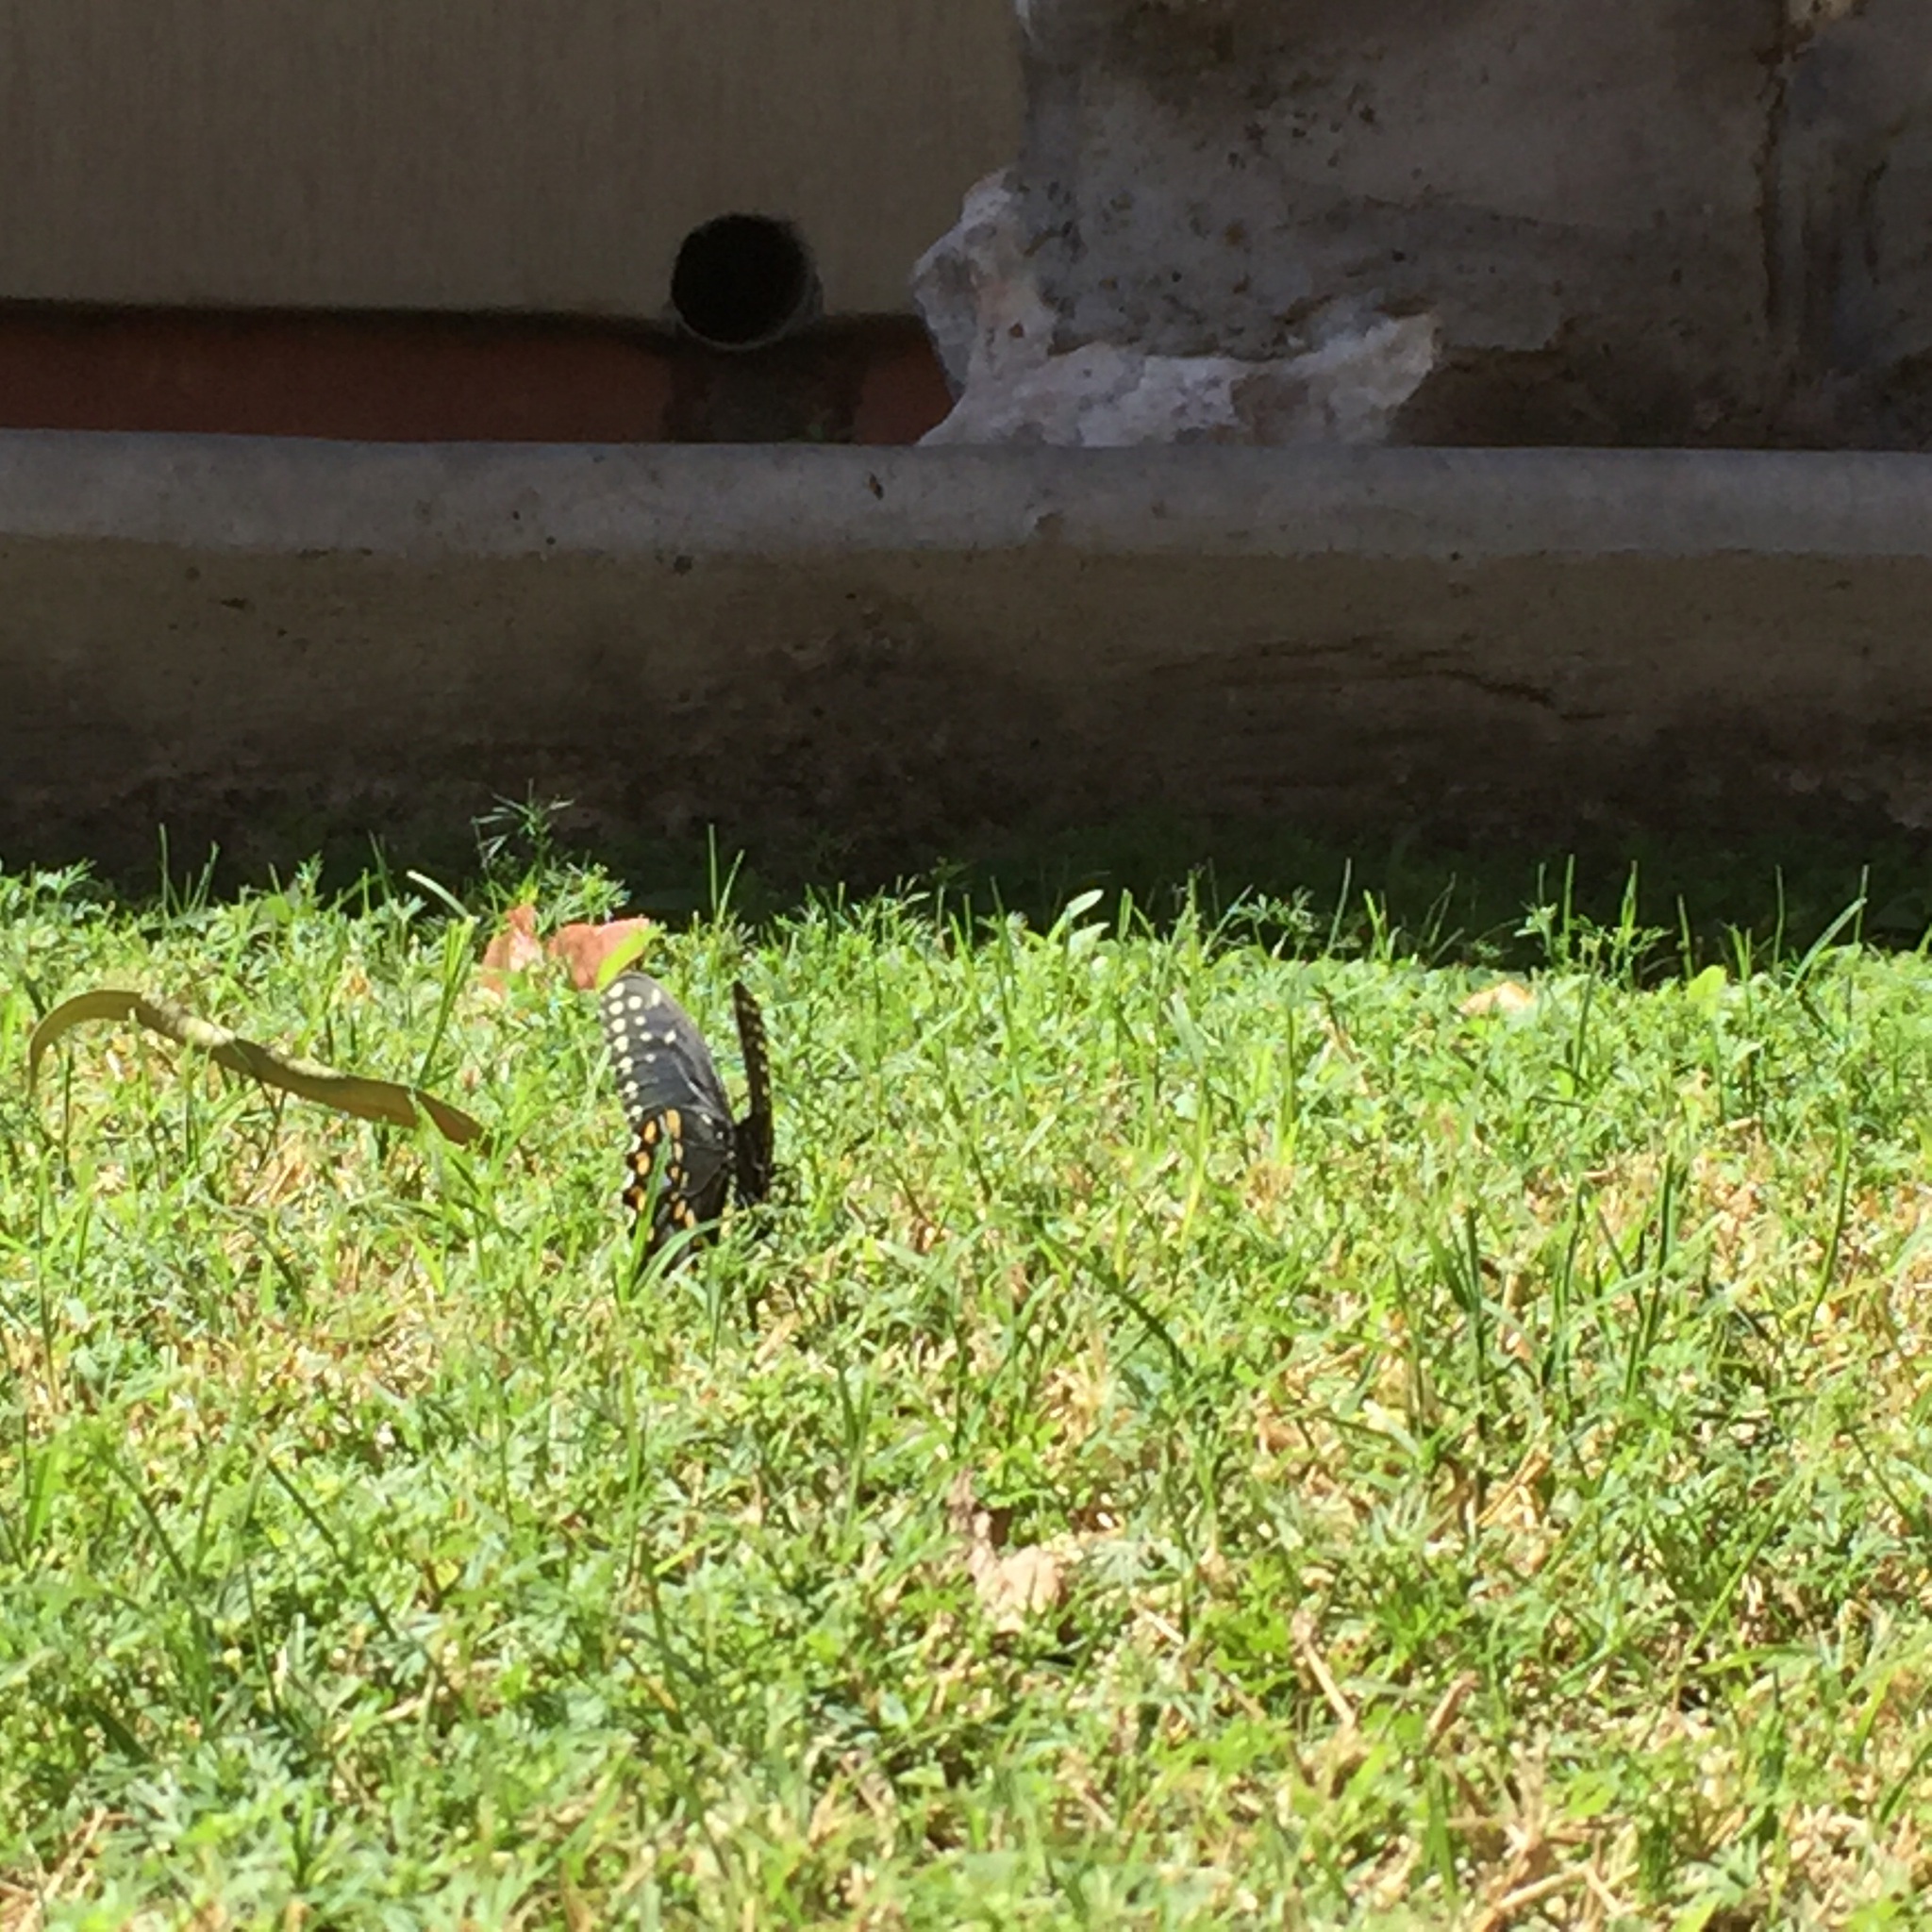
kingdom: Animalia
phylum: Arthropoda
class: Insecta
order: Lepidoptera
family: Papilionidae
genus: Papilio
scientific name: Papilio polyxenes
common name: Black swallowtail
